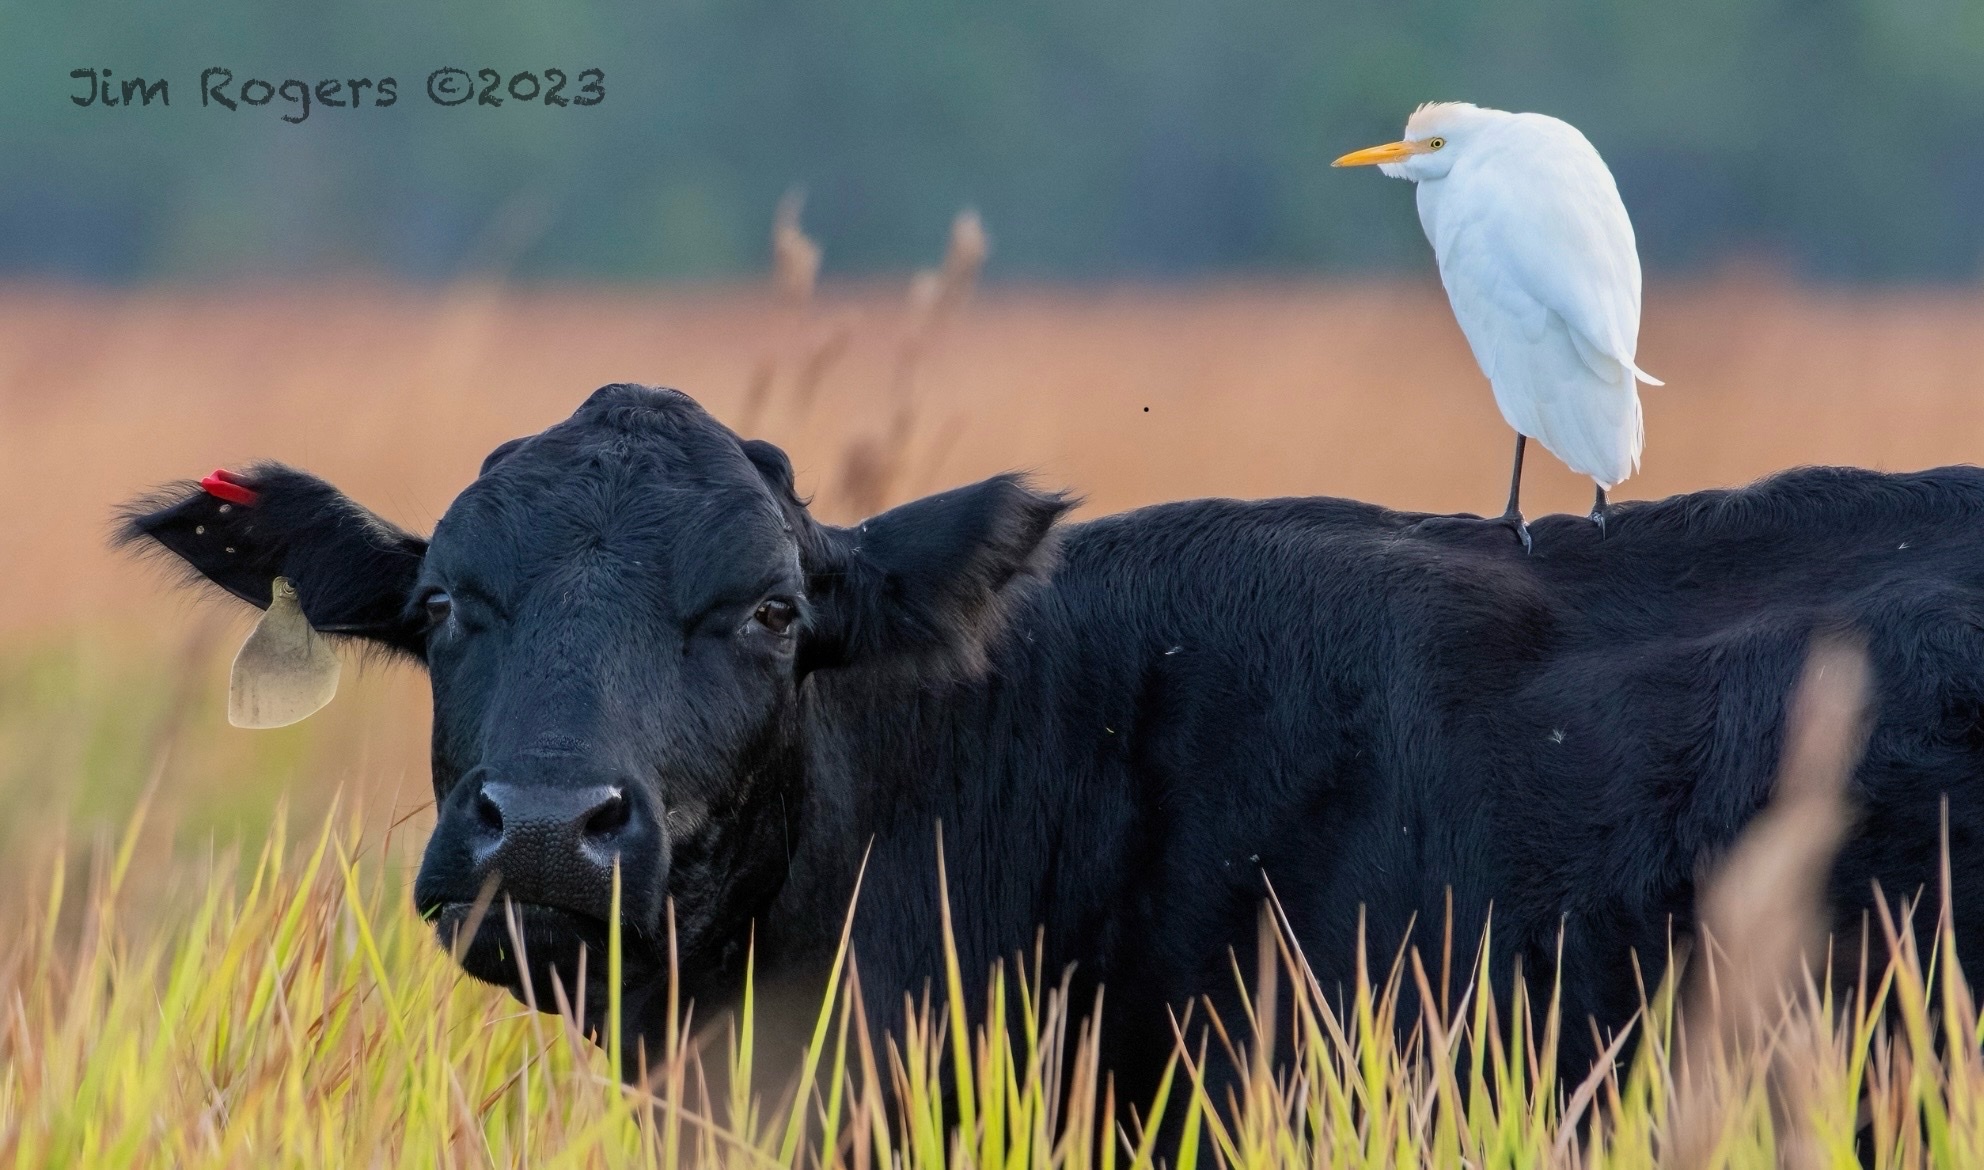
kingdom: Animalia
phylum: Chordata
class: Aves
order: Pelecaniformes
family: Ardeidae
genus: Bubulcus
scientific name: Bubulcus ibis
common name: Cattle egret
